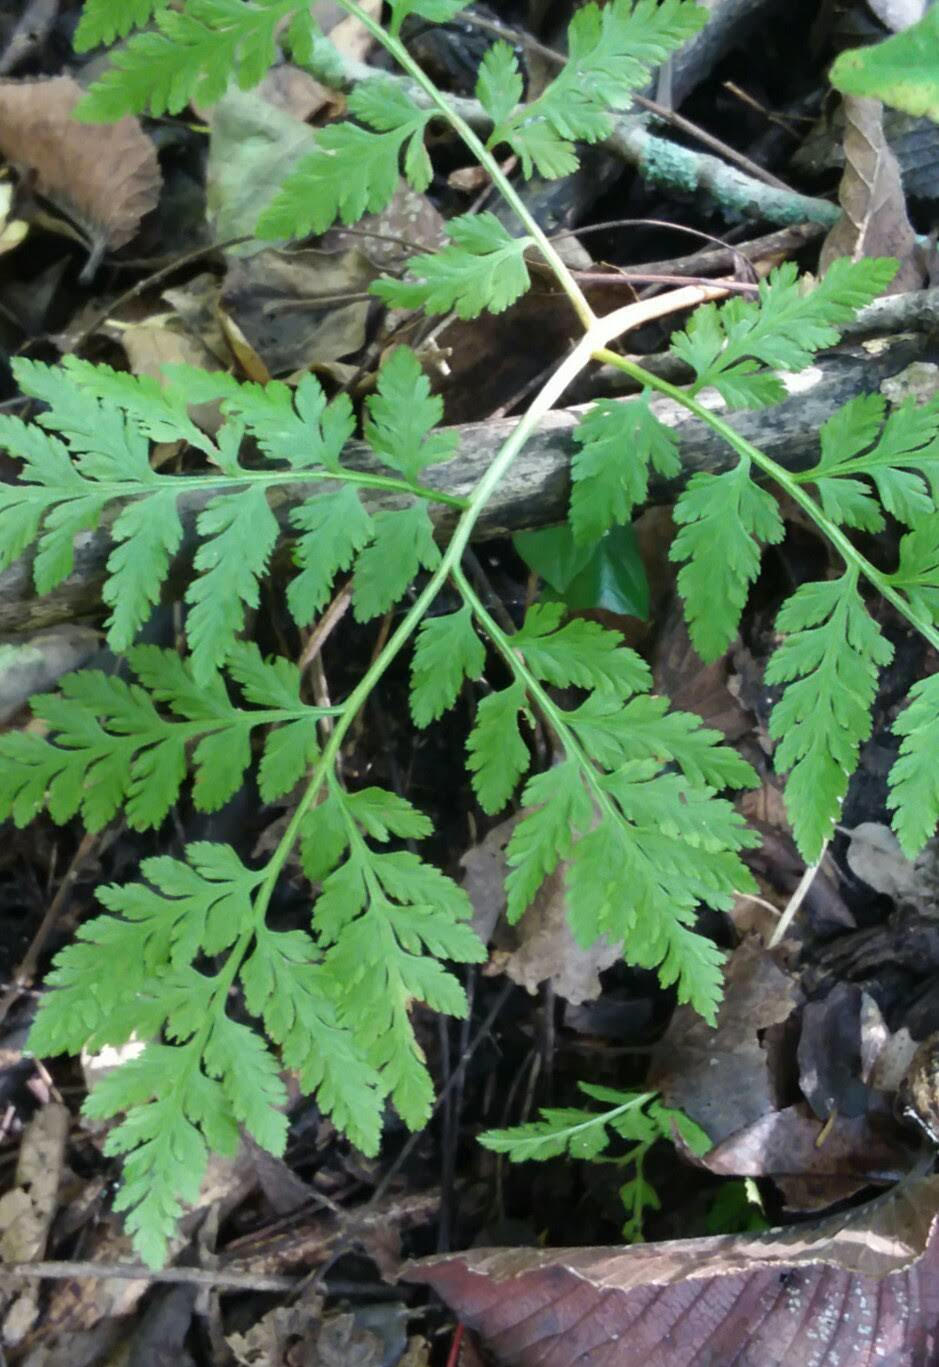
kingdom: Plantae
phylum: Tracheophyta
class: Polypodiopsida
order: Ophioglossales
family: Ophioglossaceae
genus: Botrypus
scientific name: Botrypus virginianus
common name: Common grapefern
